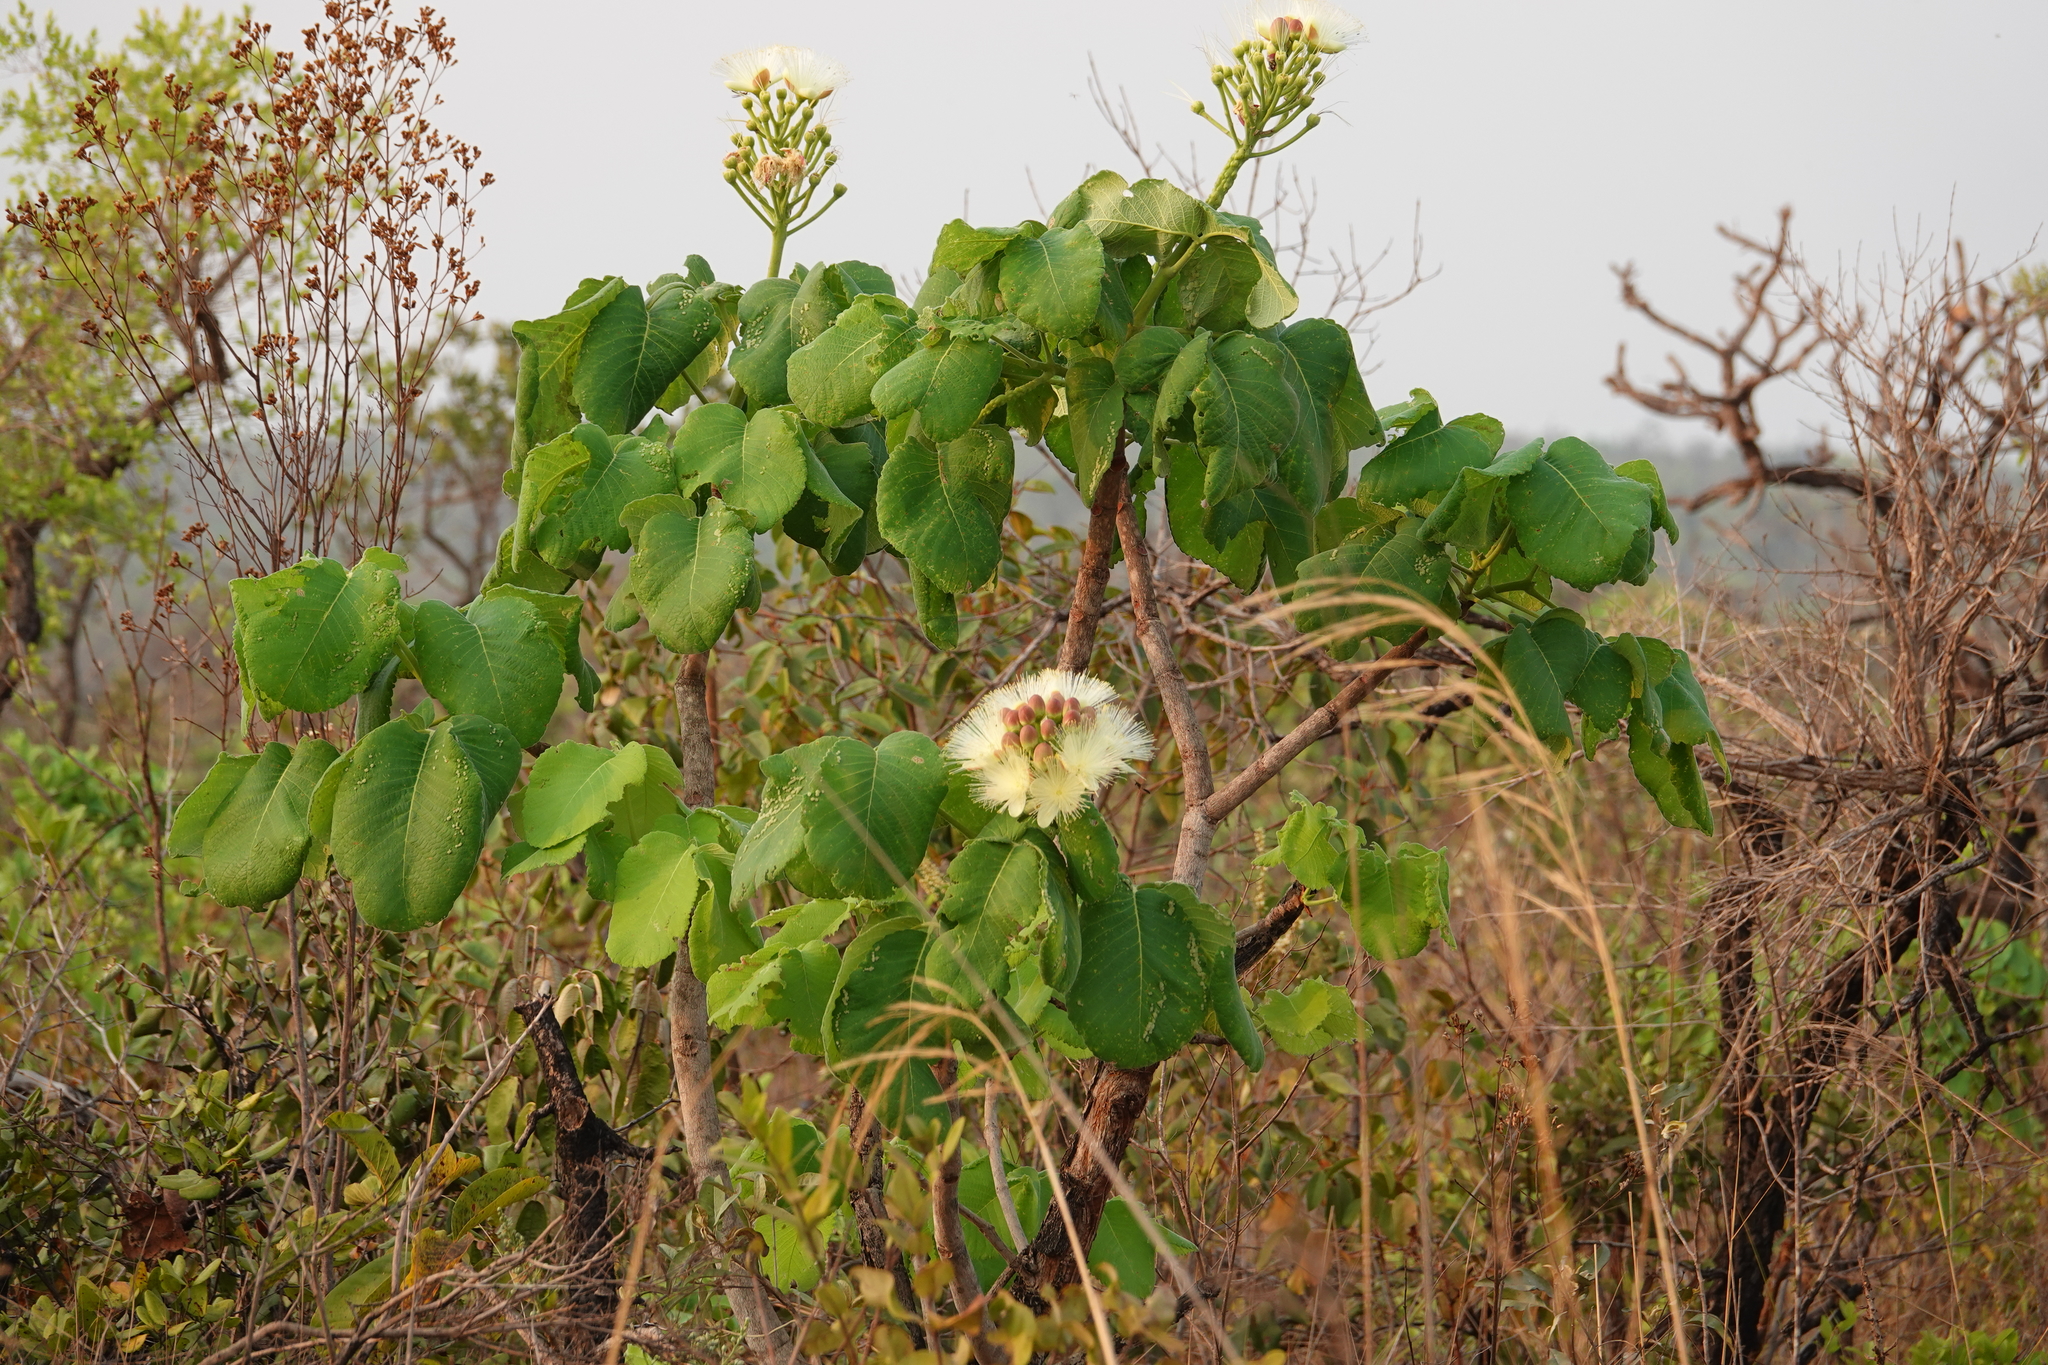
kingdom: Plantae
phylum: Tracheophyta
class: Magnoliopsida
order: Malpighiales
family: Caryocaraceae
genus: Caryocar
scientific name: Caryocar brasiliense
